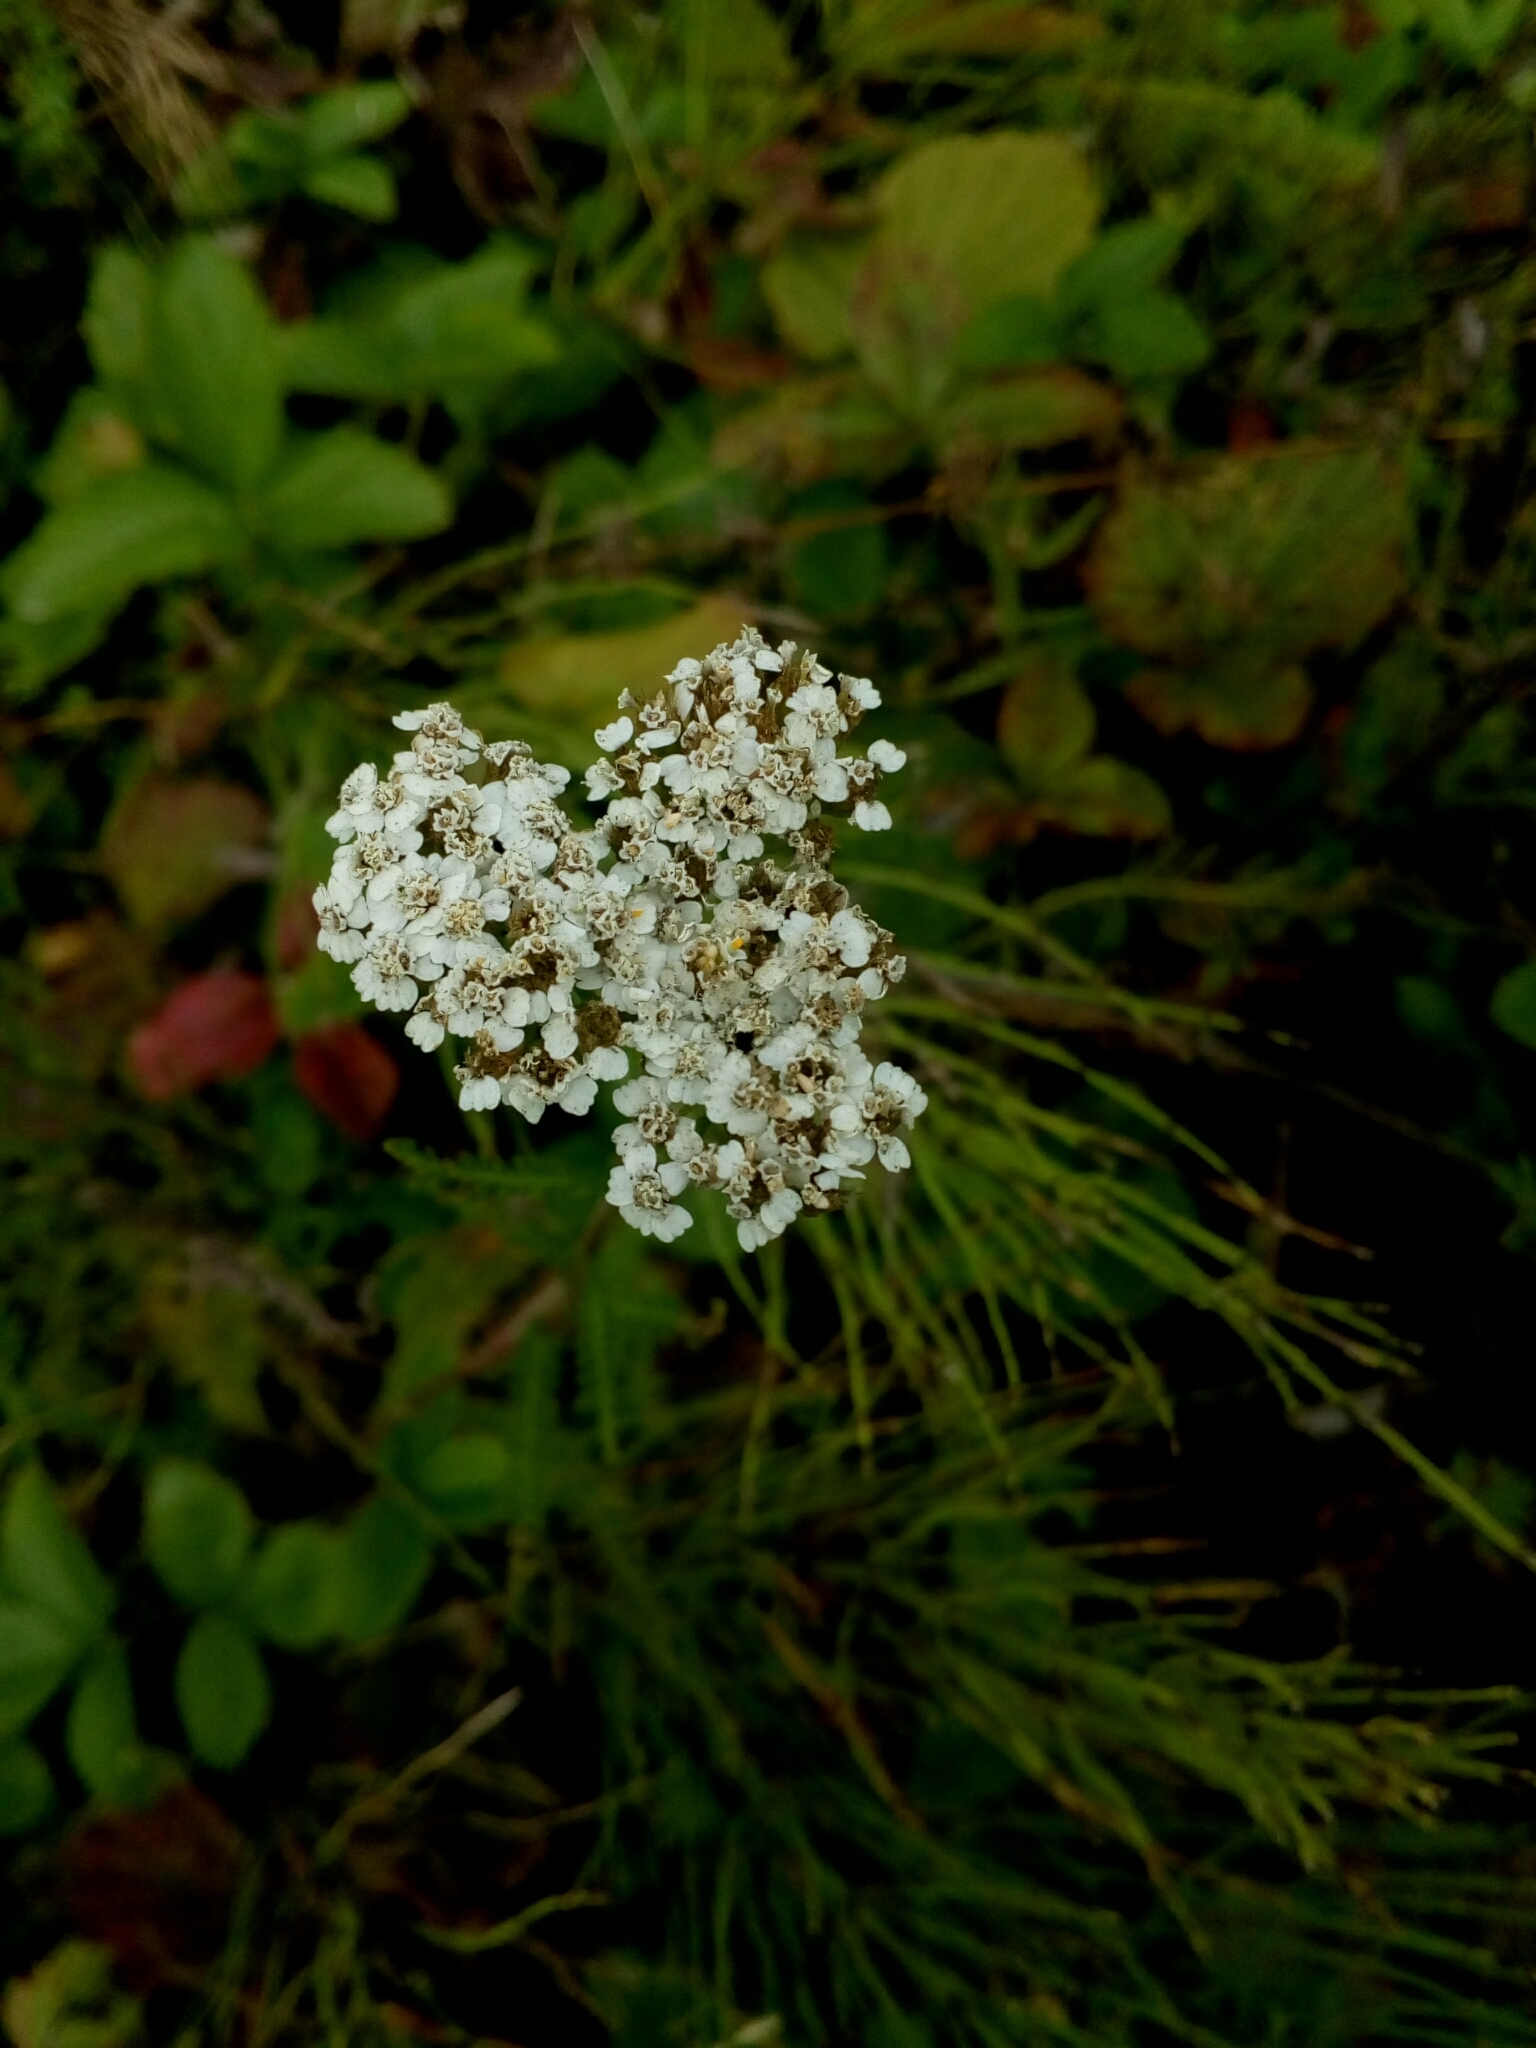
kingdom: Plantae
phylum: Tracheophyta
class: Magnoliopsida
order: Asterales
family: Asteraceae
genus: Achillea
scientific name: Achillea millefolium
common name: Yarrow
